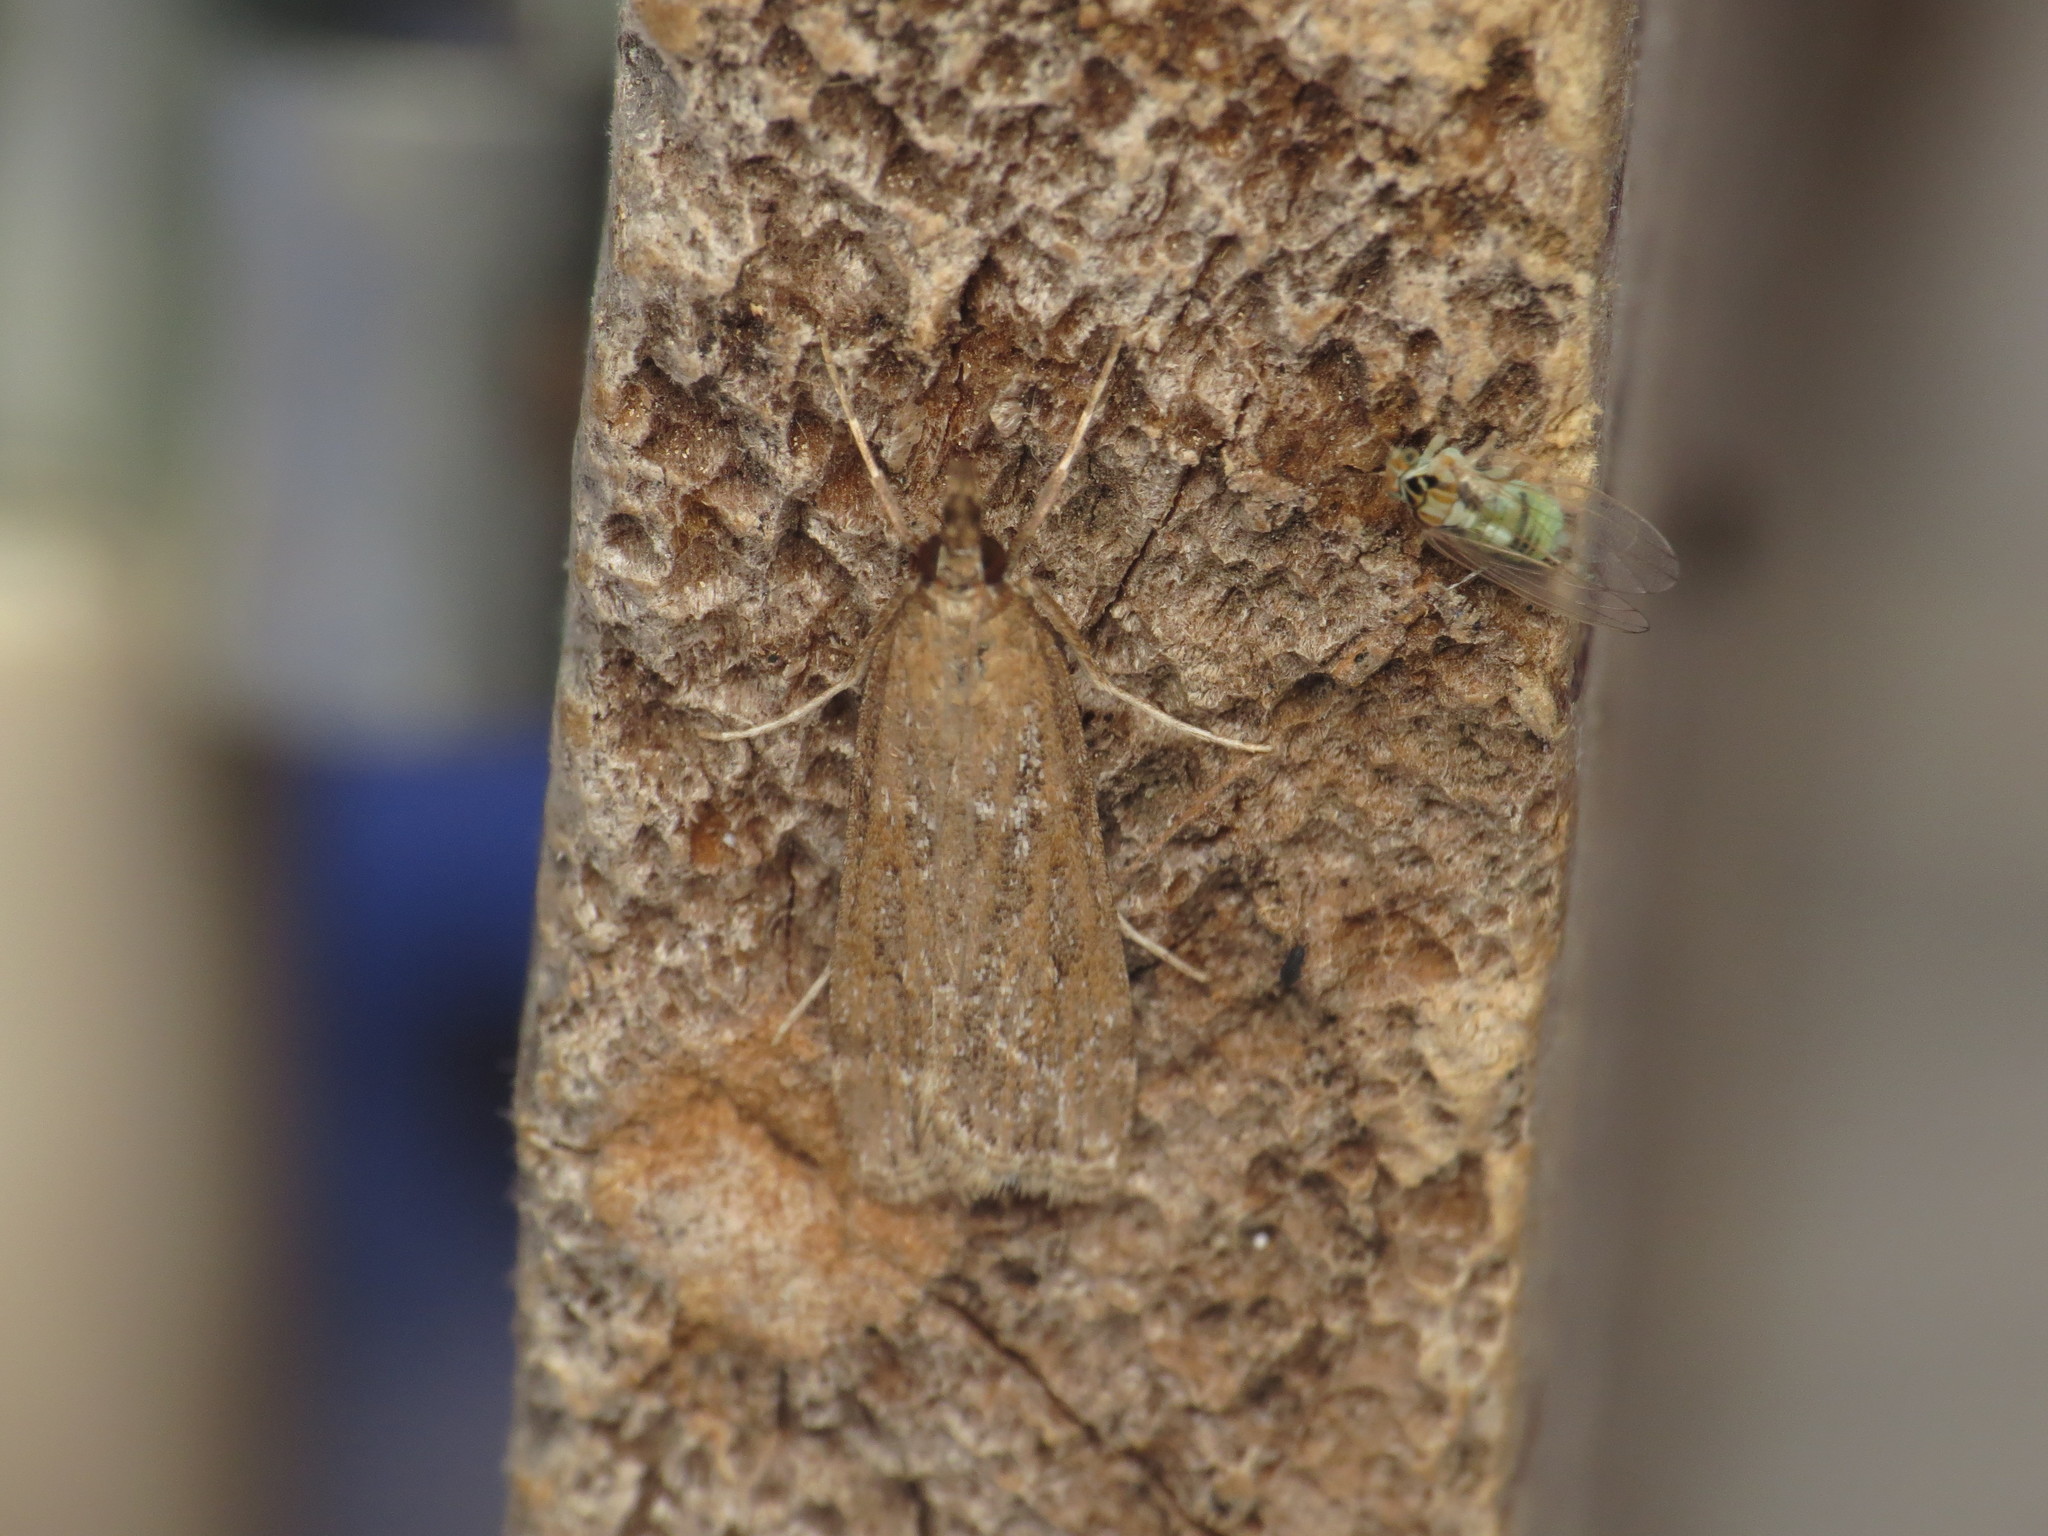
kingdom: Animalia
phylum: Arthropoda
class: Insecta
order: Lepidoptera
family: Crambidae
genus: Achyra
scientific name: Achyra affinitalis
